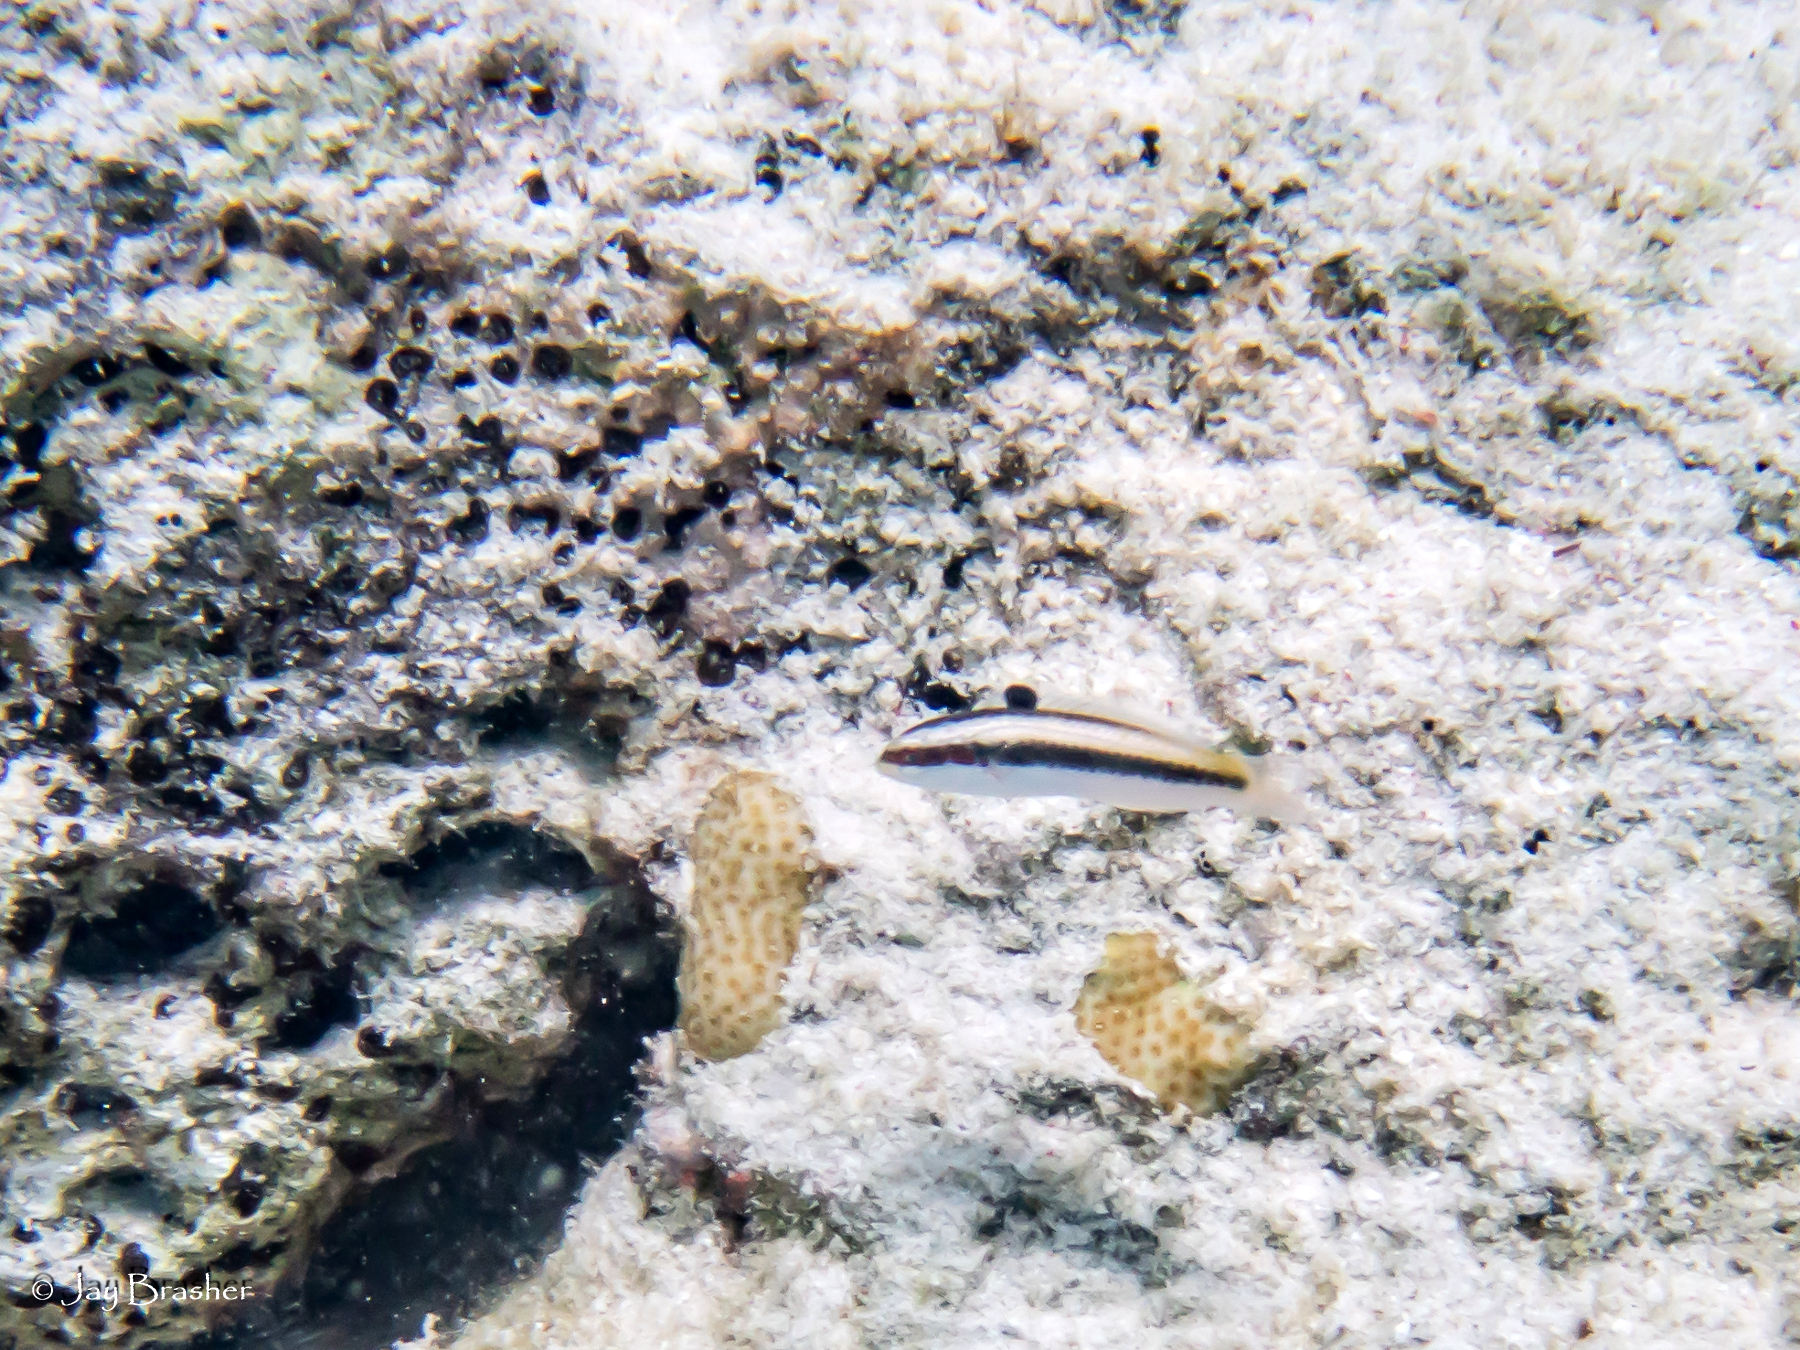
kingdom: Animalia
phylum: Chordata
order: Perciformes
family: Labridae
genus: Thalassoma
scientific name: Thalassoma bifasciatum
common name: Bluehead wrasse
